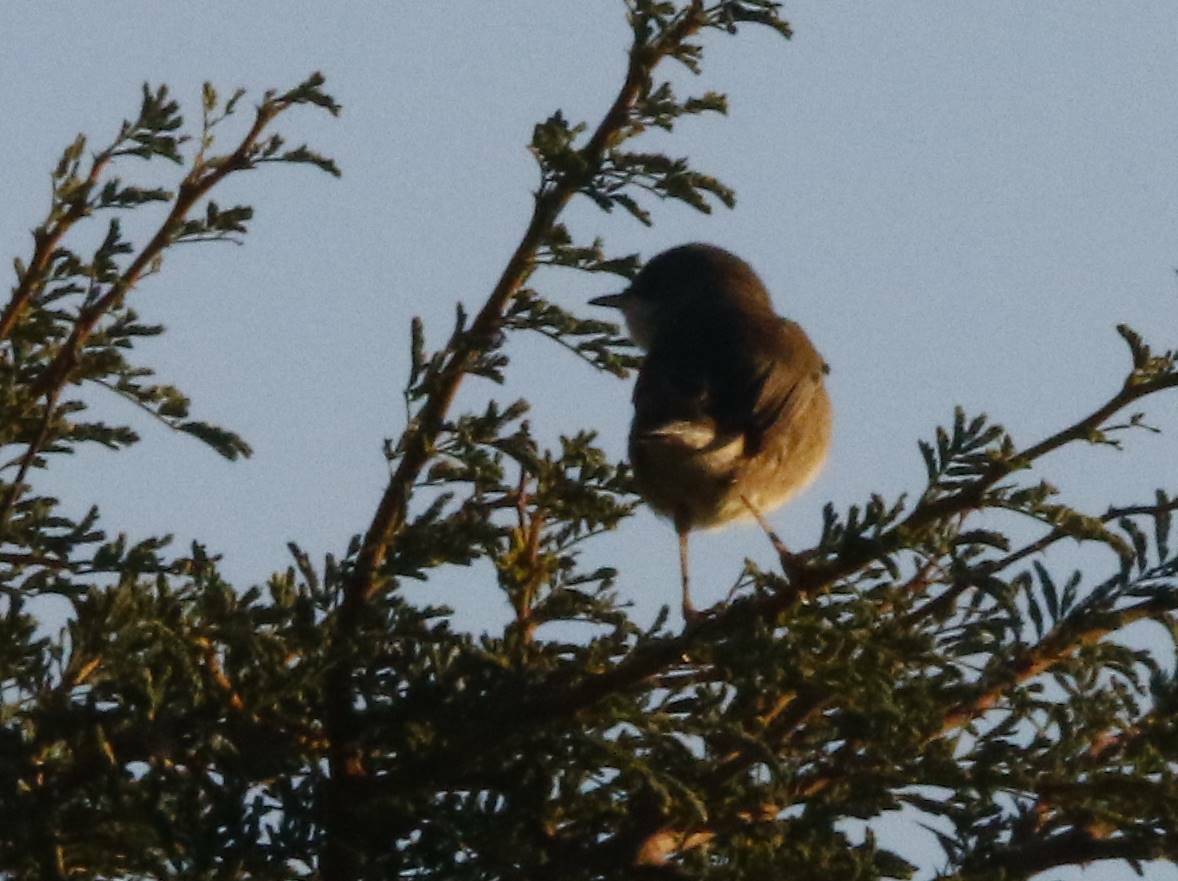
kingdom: Animalia
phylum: Chordata
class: Aves
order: Passeriformes
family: Sylviidae
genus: Curruca
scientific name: Curruca melanocephala
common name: Sardinian warbler
